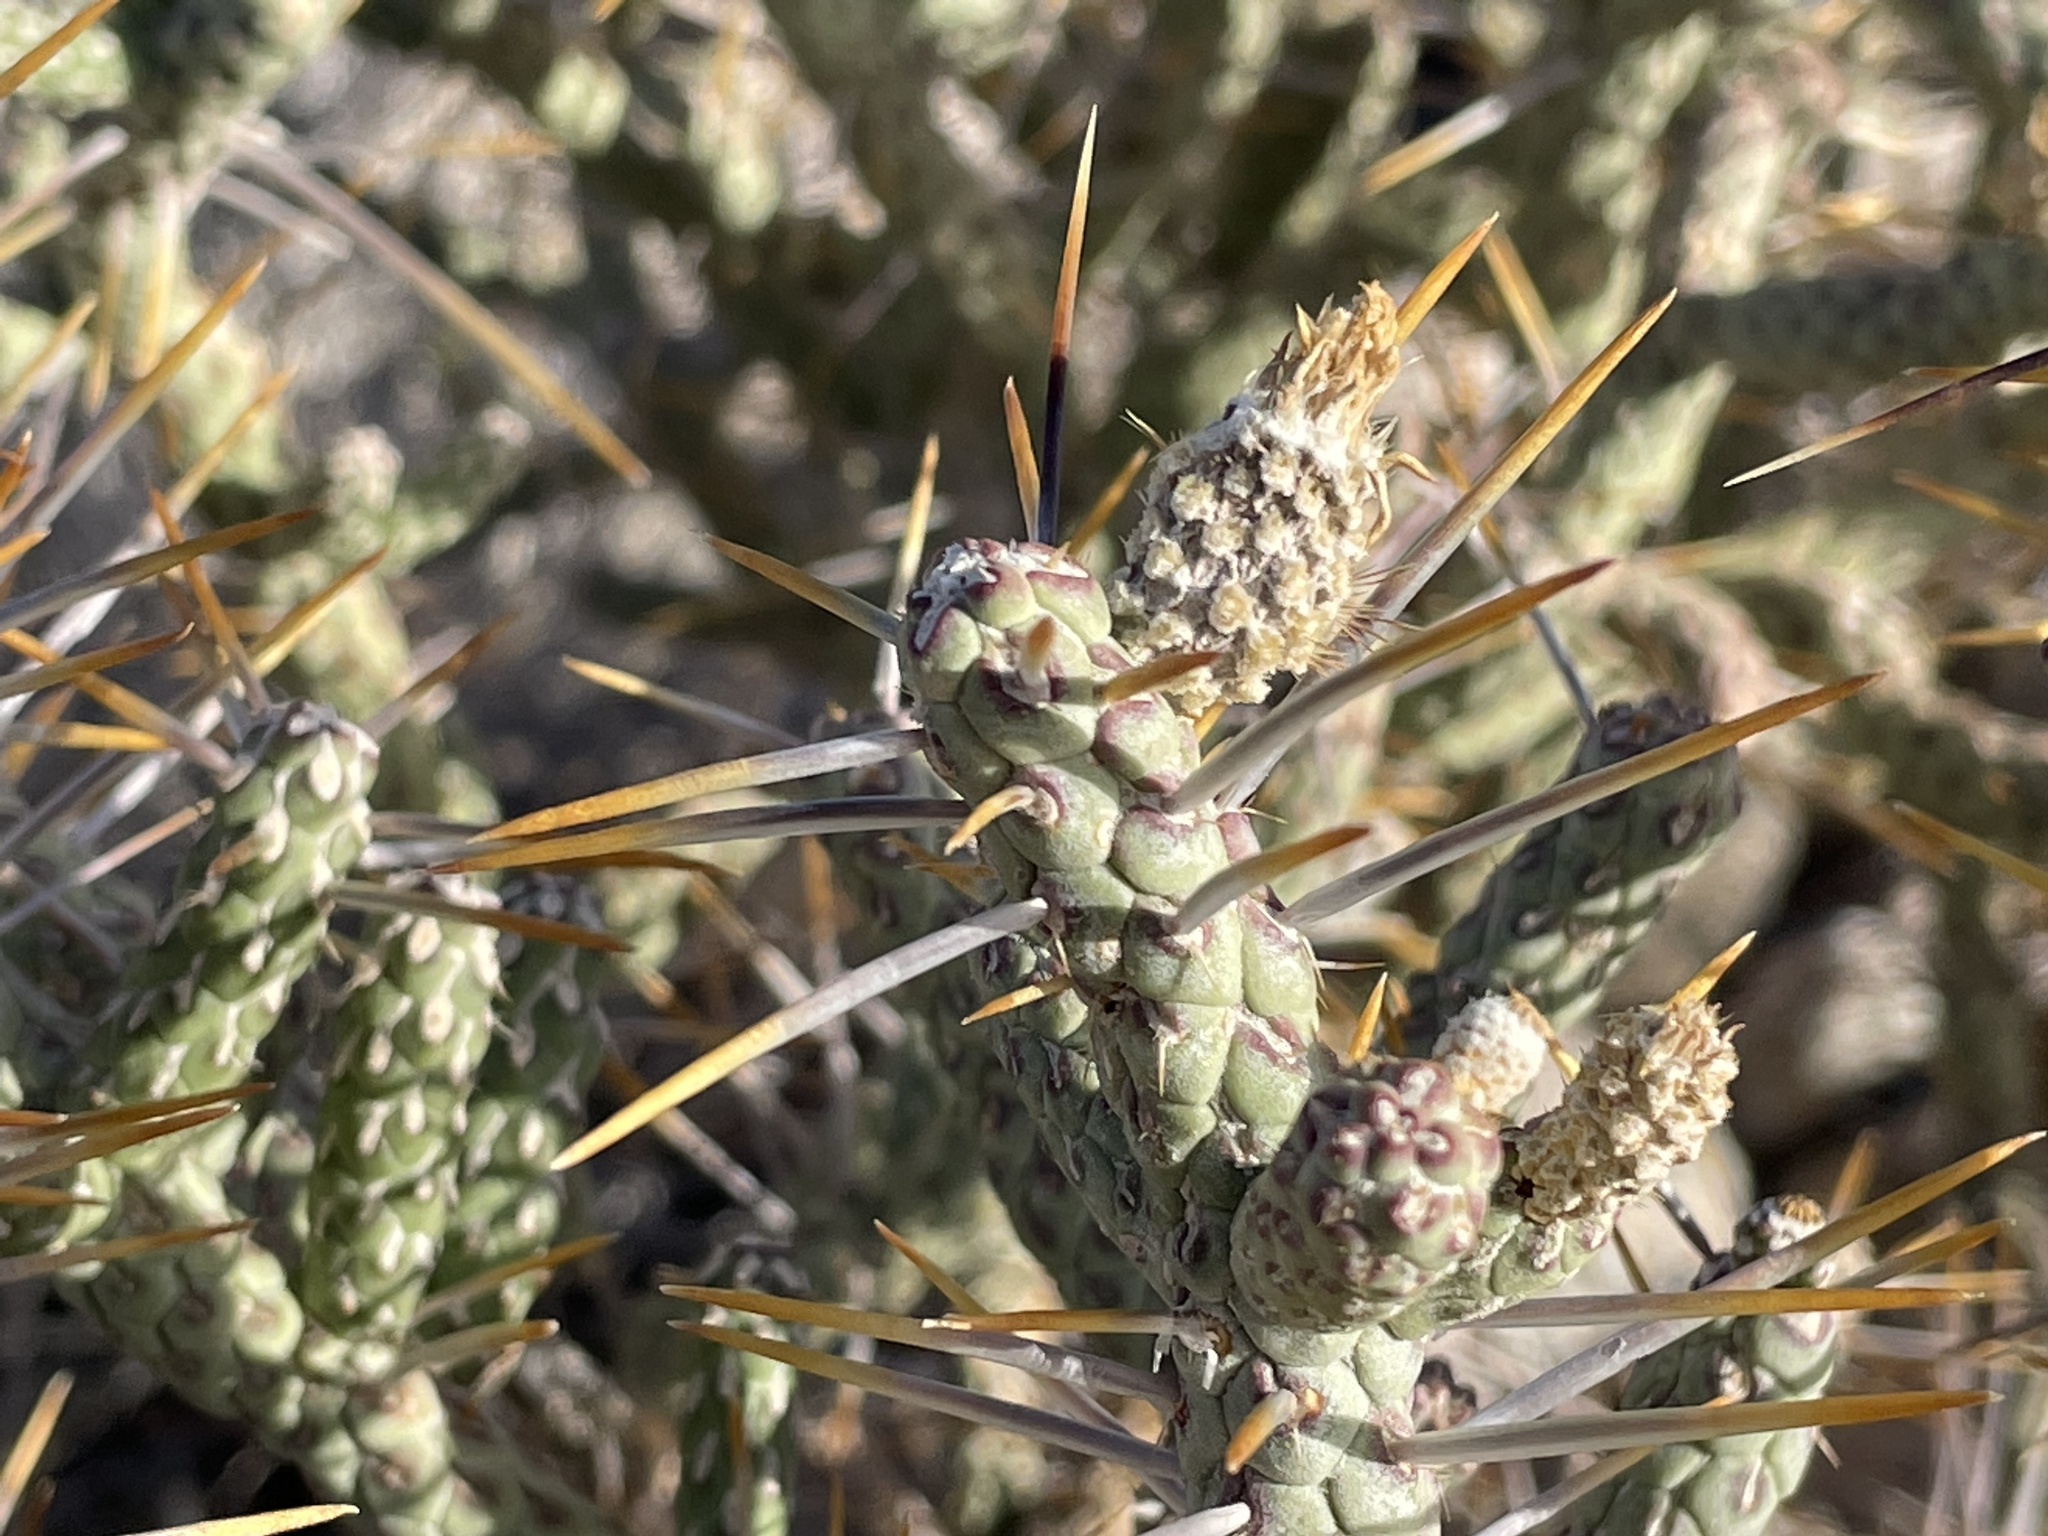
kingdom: Plantae
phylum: Tracheophyta
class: Magnoliopsida
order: Caryophyllales
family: Cactaceae
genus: Cylindropuntia
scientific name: Cylindropuntia ramosissima
